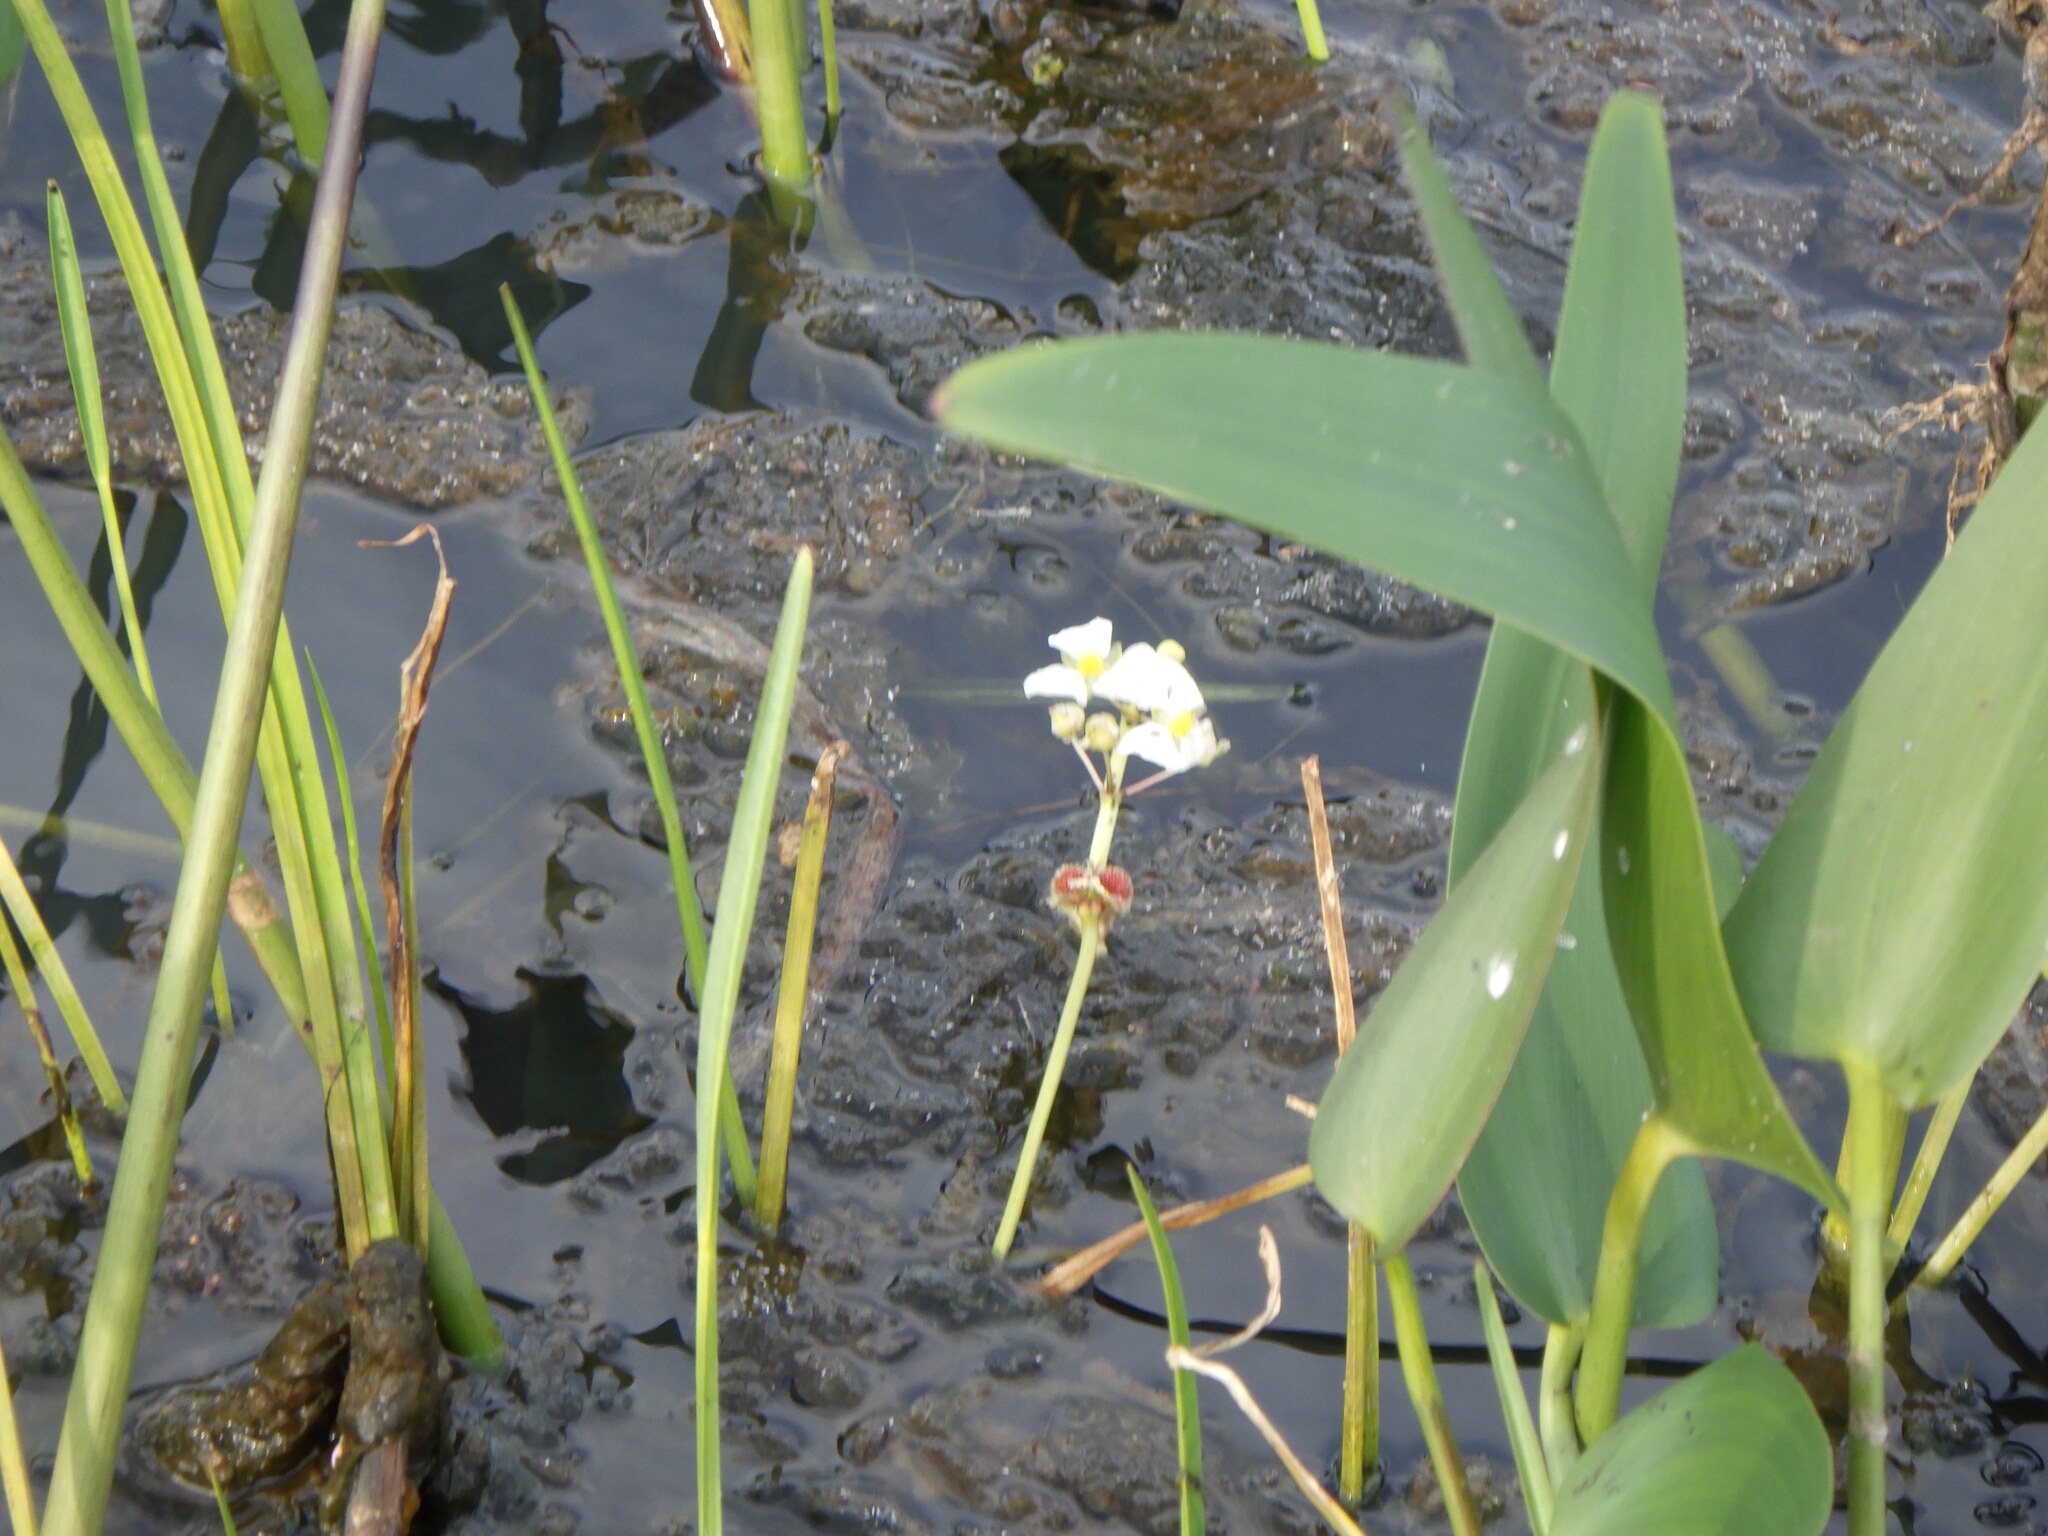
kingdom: Plantae
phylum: Tracheophyta
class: Liliopsida
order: Alismatales
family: Alismataceae
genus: Sagittaria
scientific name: Sagittaria rigida
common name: Canadian arrowhead
